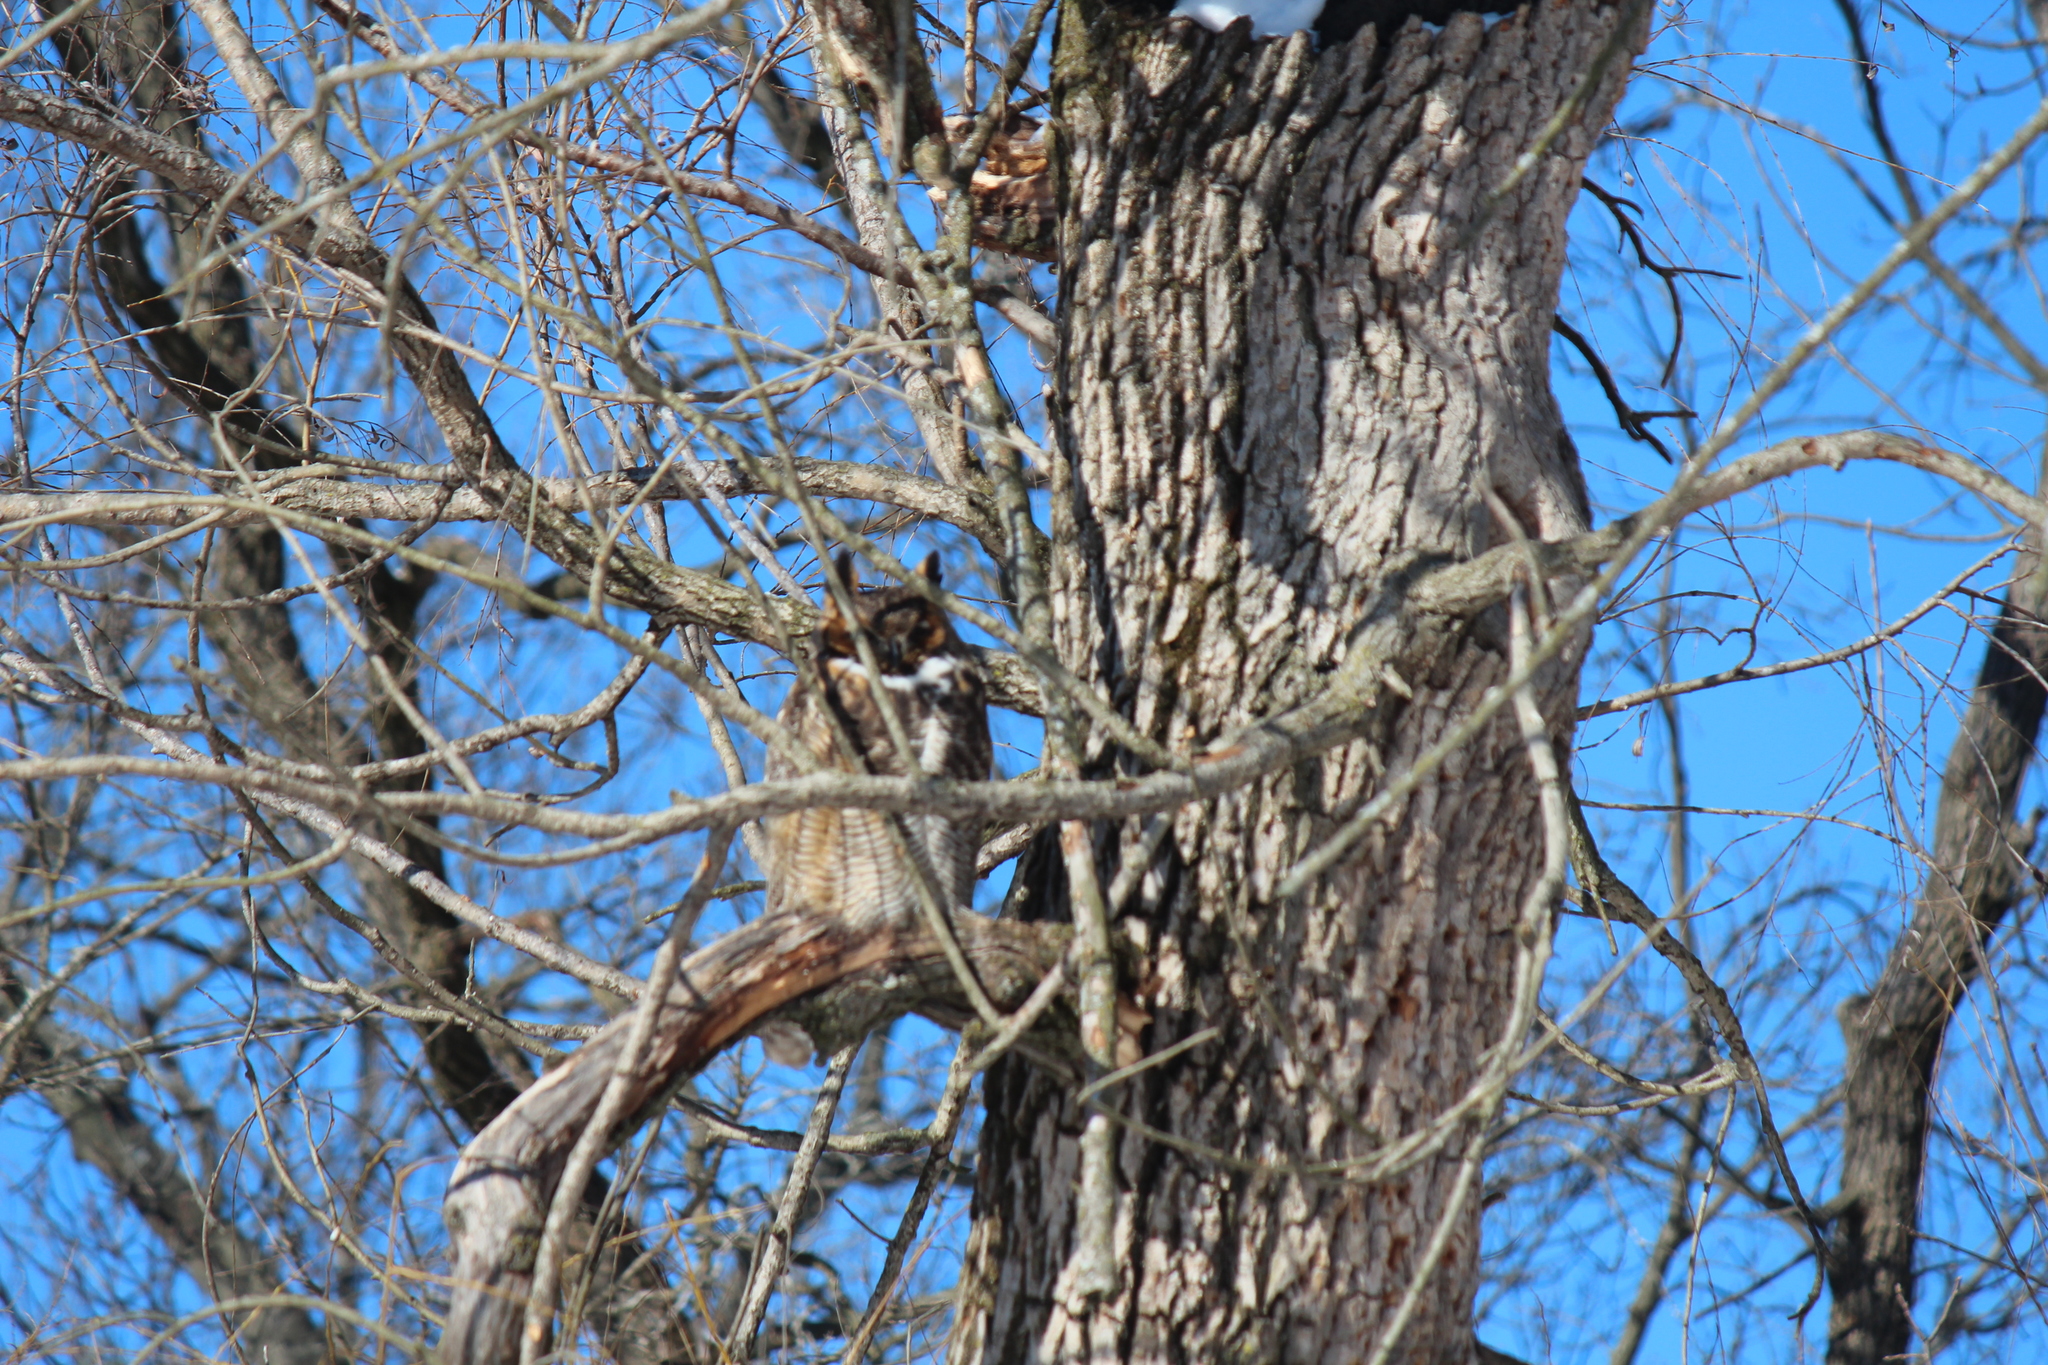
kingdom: Animalia
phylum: Chordata
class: Aves
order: Strigiformes
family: Strigidae
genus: Bubo
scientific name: Bubo virginianus
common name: Great horned owl
